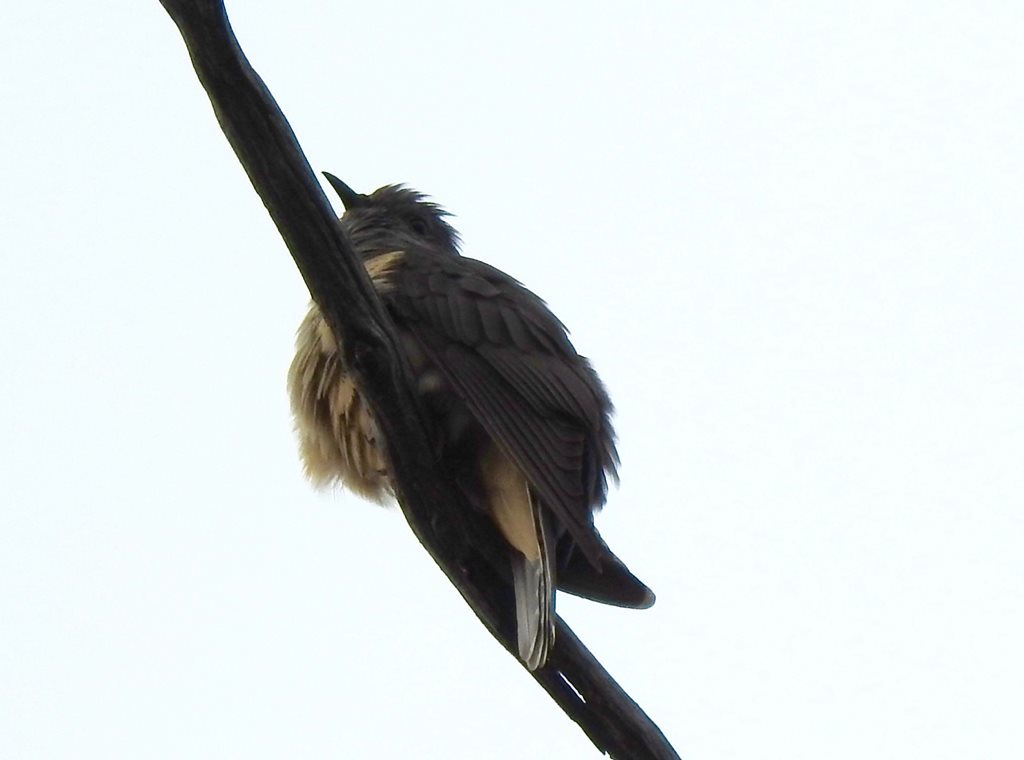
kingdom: Animalia
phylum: Chordata
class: Aves
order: Cuculiformes
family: Cuculidae
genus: Cacomantis
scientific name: Cacomantis flabelliformis
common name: Fan-tailed cuckoo
